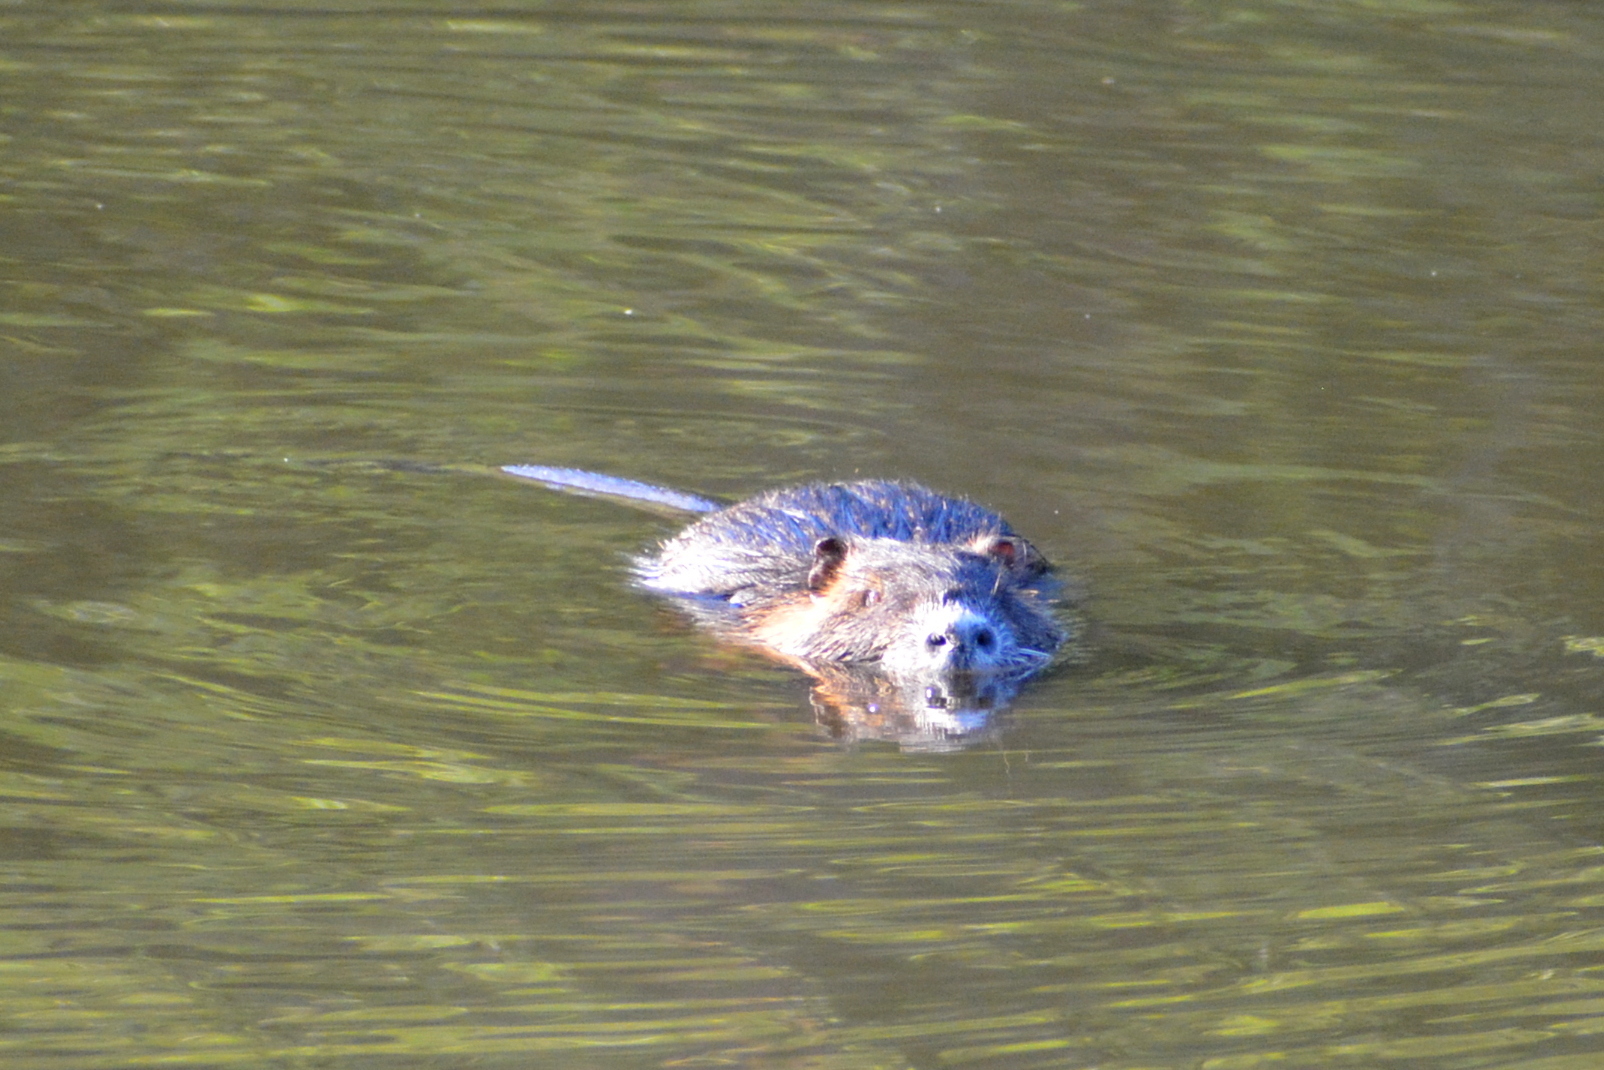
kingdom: Animalia
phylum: Chordata
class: Mammalia
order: Rodentia
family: Myocastoridae
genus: Myocastor
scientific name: Myocastor coypus
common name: Coypu
